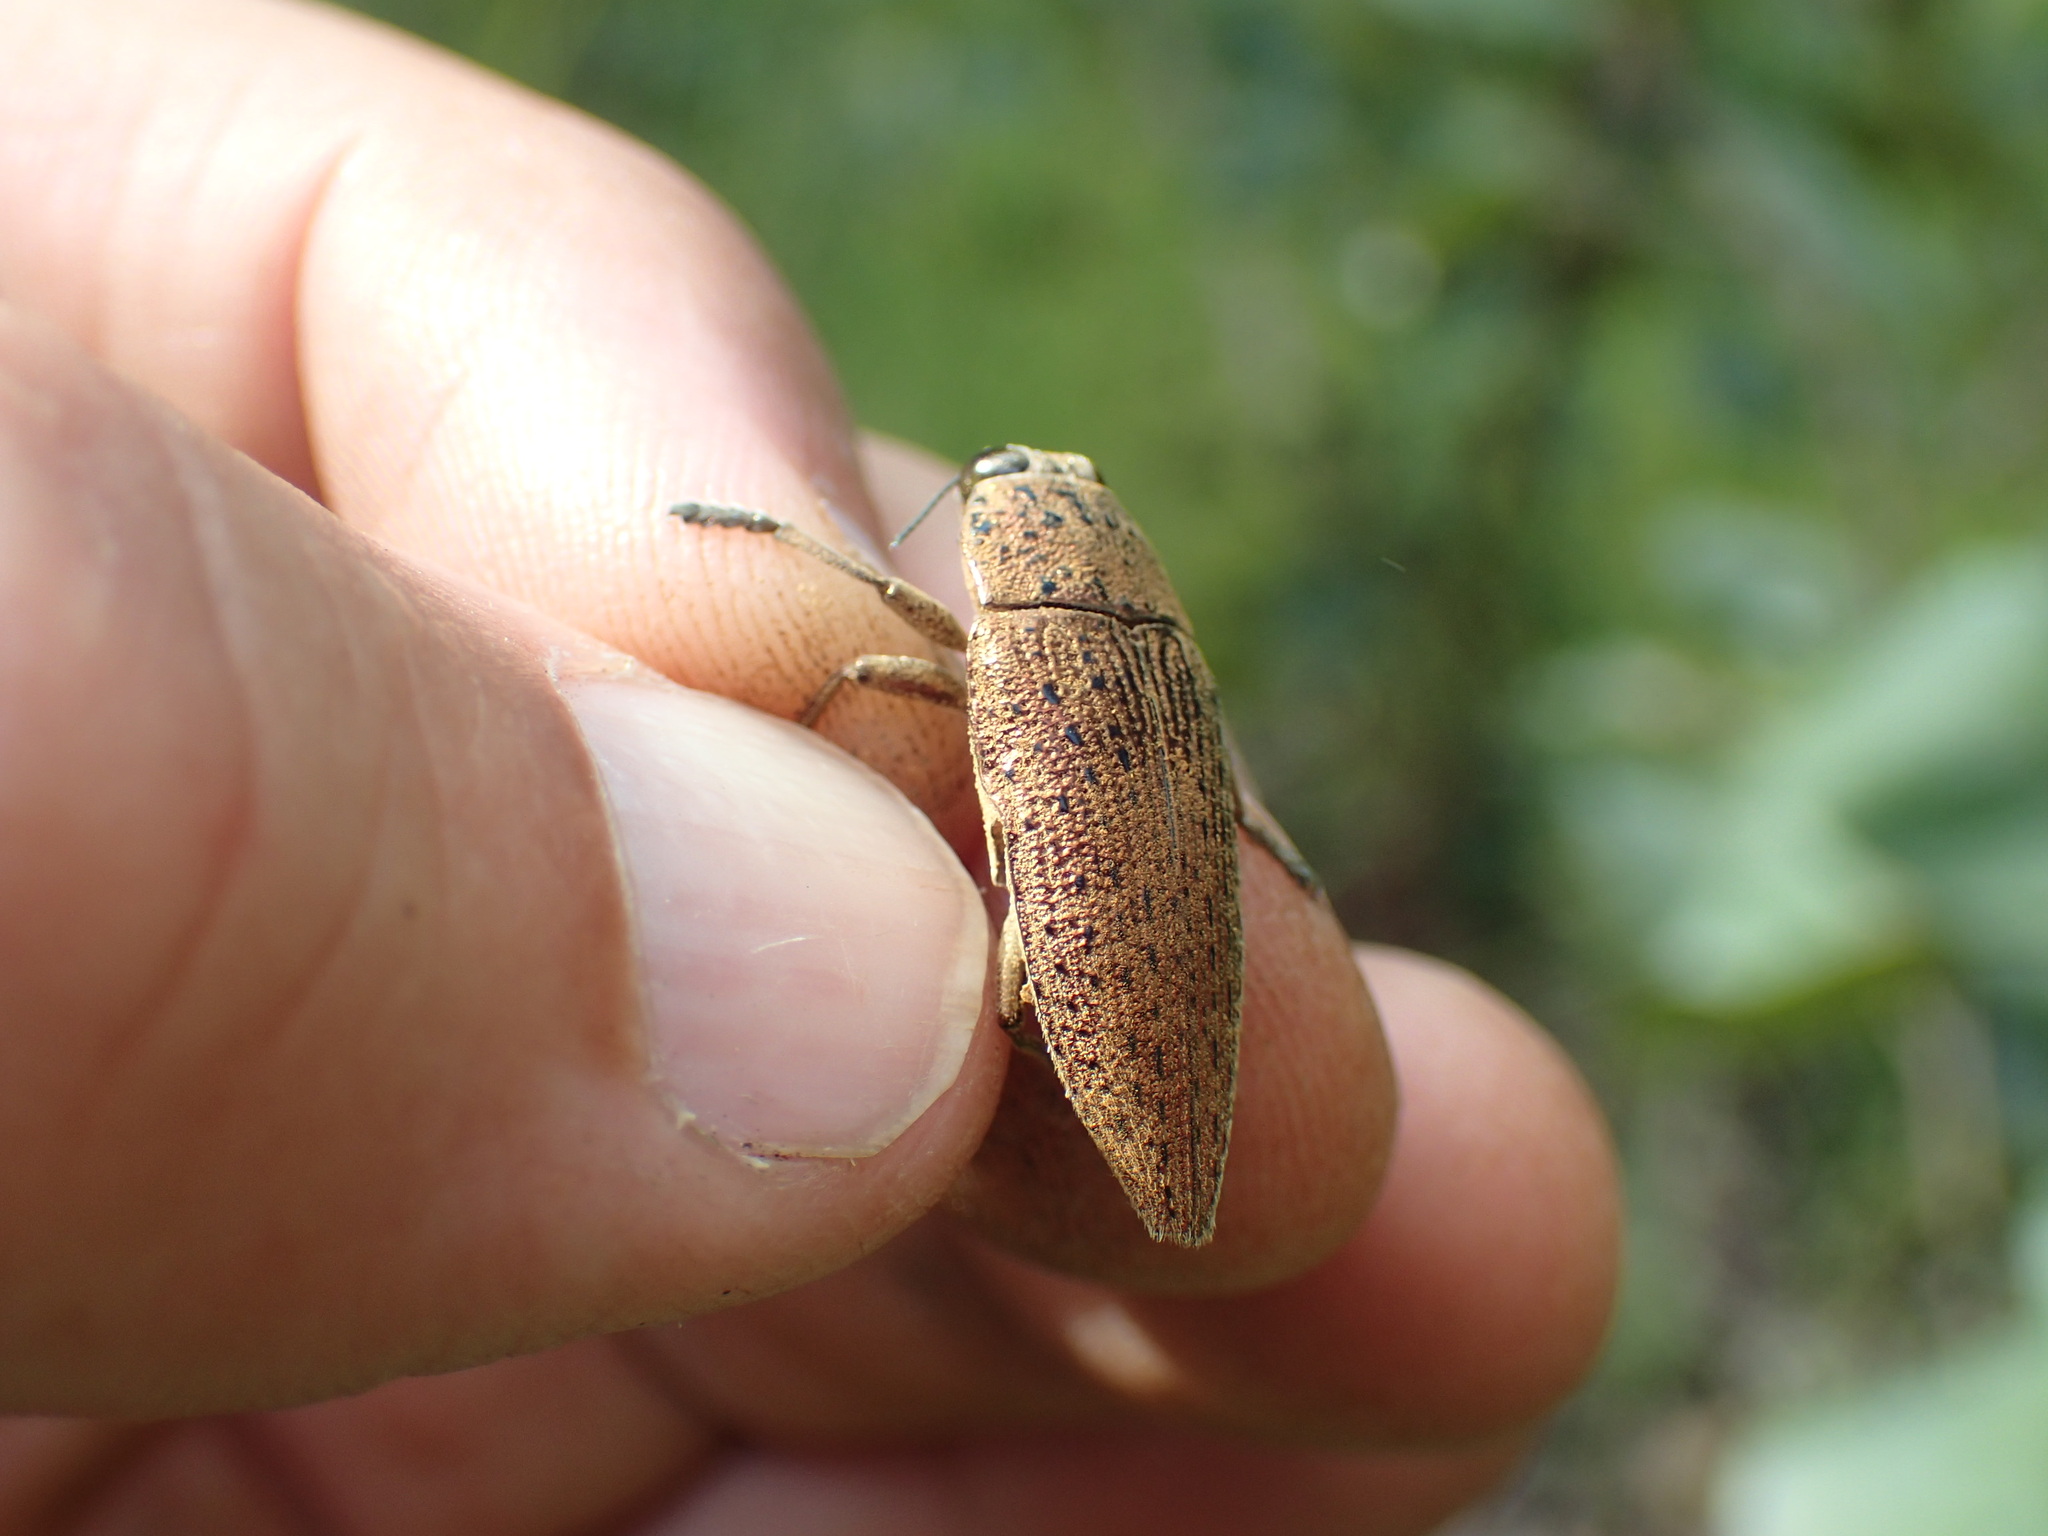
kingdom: Animalia
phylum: Arthropoda
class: Insecta
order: Coleoptera
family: Buprestidae
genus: Lampetis
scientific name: Lampetis muata
